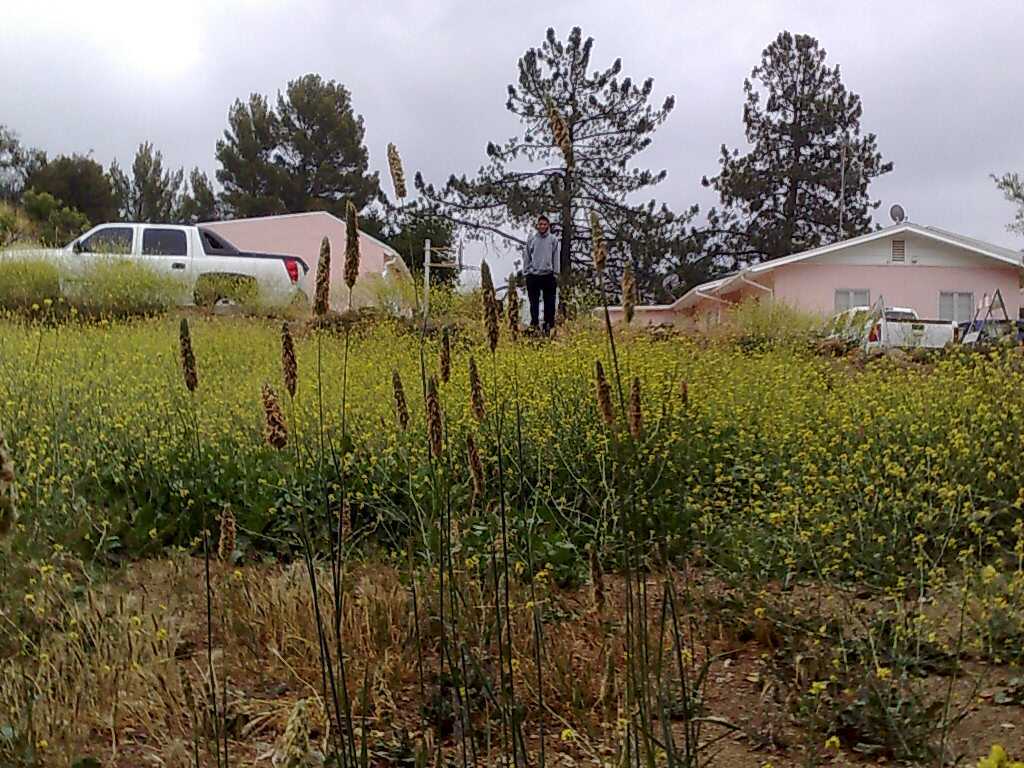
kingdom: Plantae
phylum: Tracheophyta
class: Magnoliopsida
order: Brassicales
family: Brassicaceae
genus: Hirschfeldia
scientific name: Hirschfeldia incana
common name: Hoary mustard
